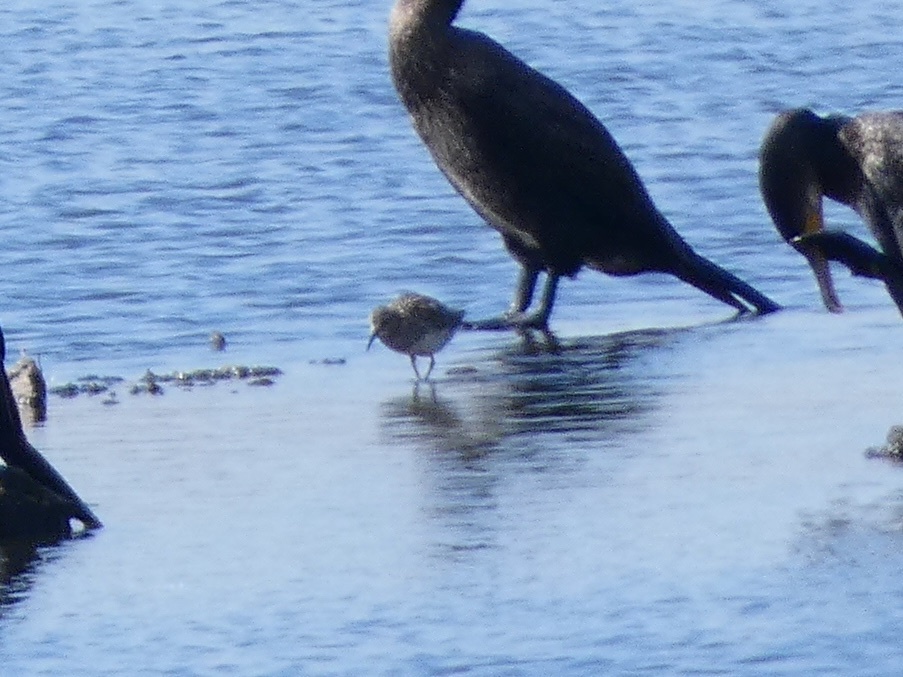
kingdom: Animalia
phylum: Chordata
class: Aves
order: Charadriiformes
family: Scolopacidae
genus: Calidris
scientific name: Calidris melanotos
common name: Pectoral sandpiper
